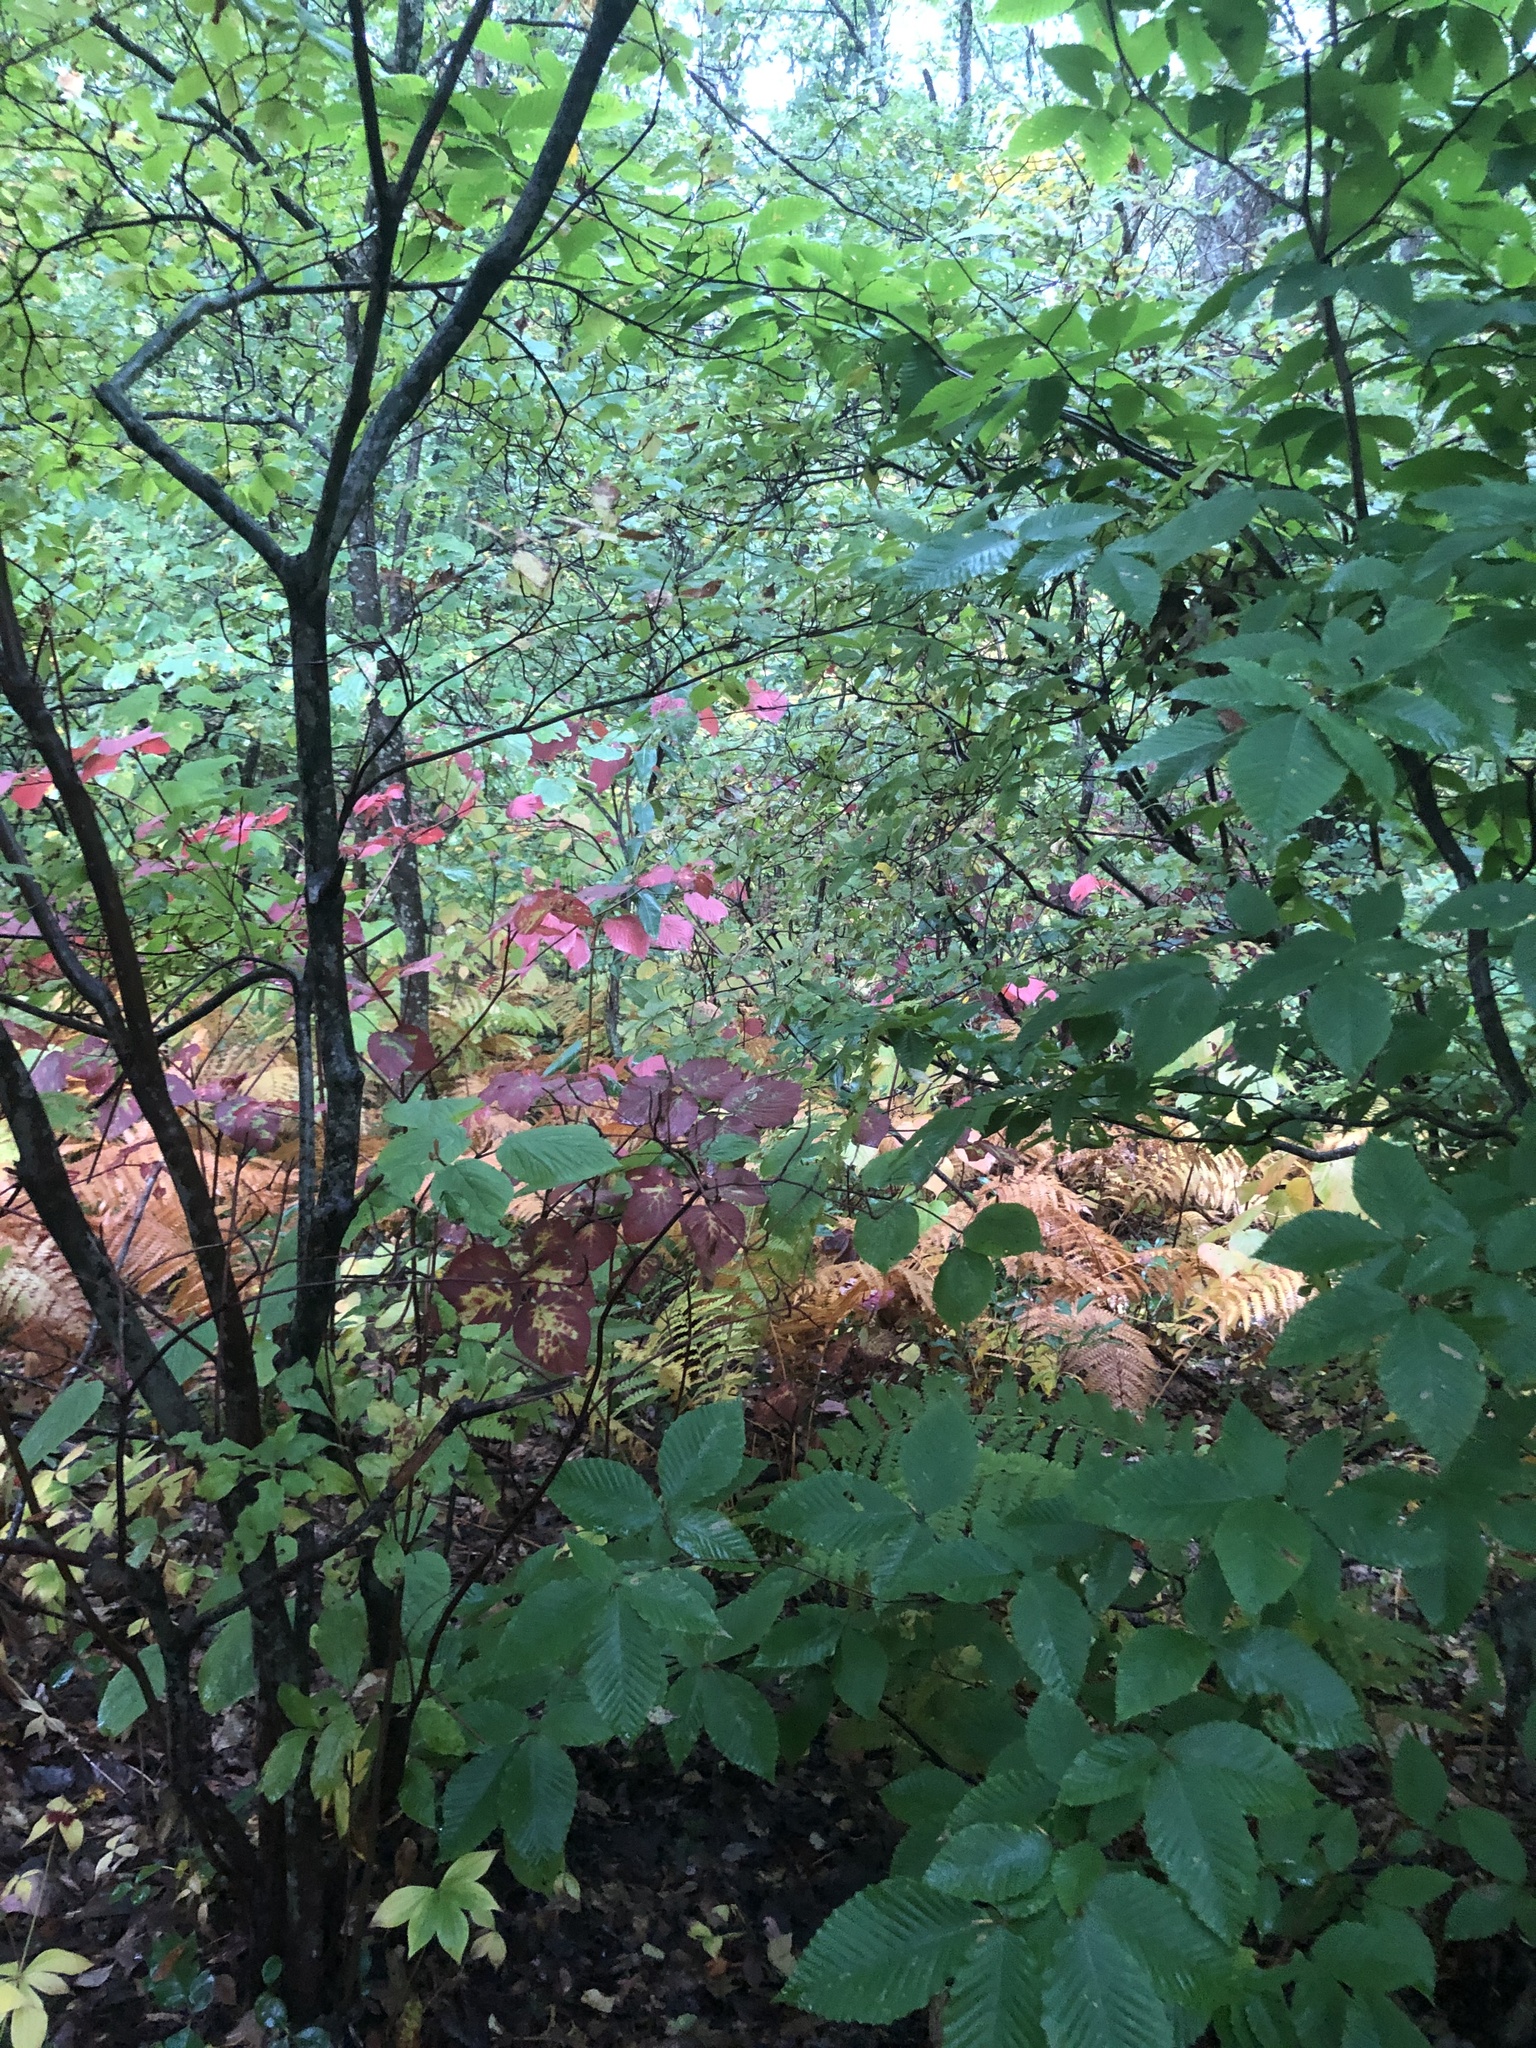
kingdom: Plantae
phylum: Tracheophyta
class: Magnoliopsida
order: Fagales
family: Fagaceae
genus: Fagus
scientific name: Fagus grandifolia
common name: American beech
